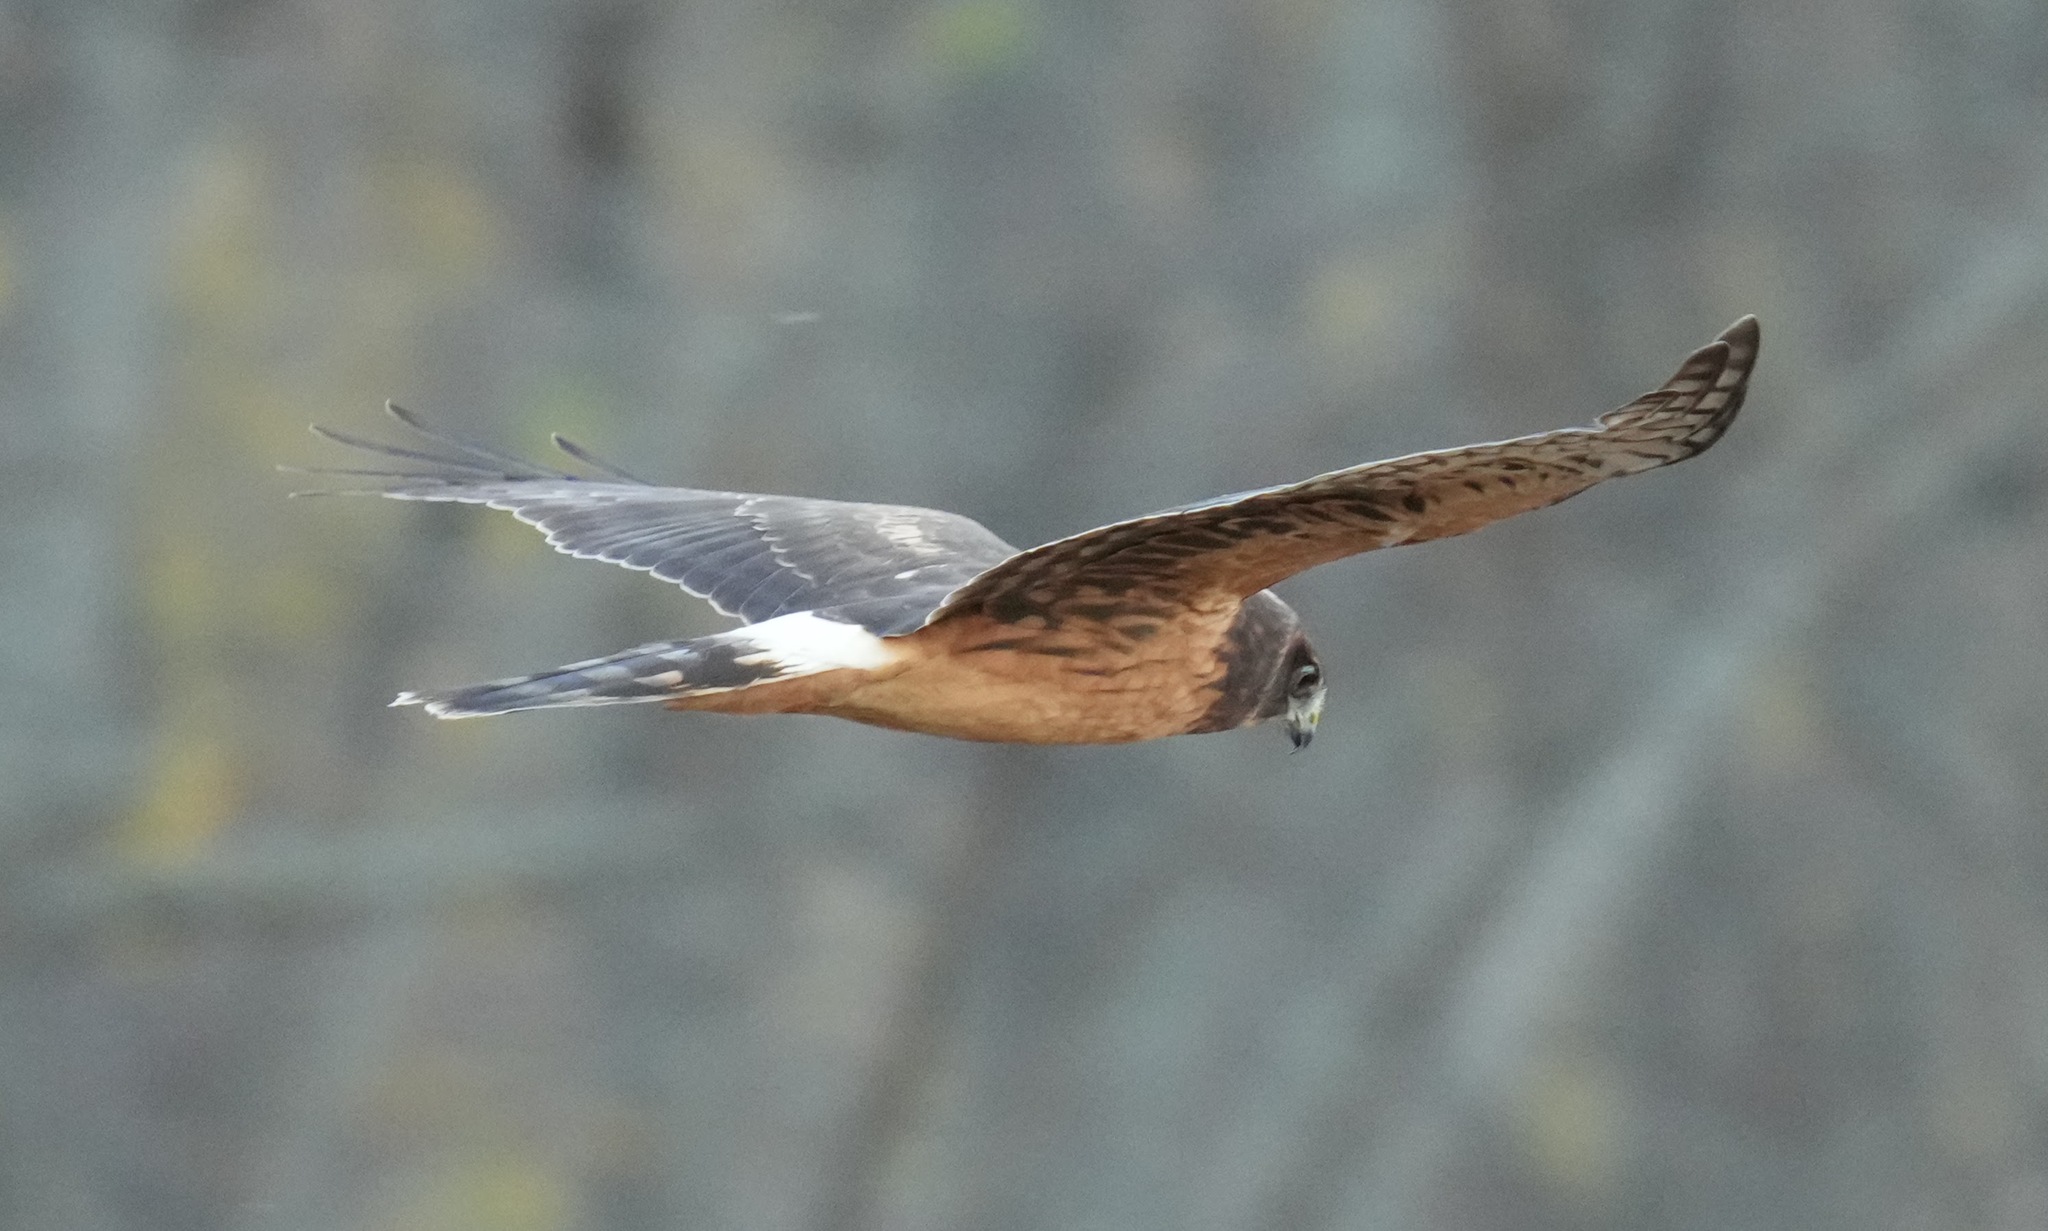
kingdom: Animalia
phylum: Chordata
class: Aves
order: Accipitriformes
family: Accipitridae
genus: Circus
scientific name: Circus cyaneus
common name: Hen harrier
